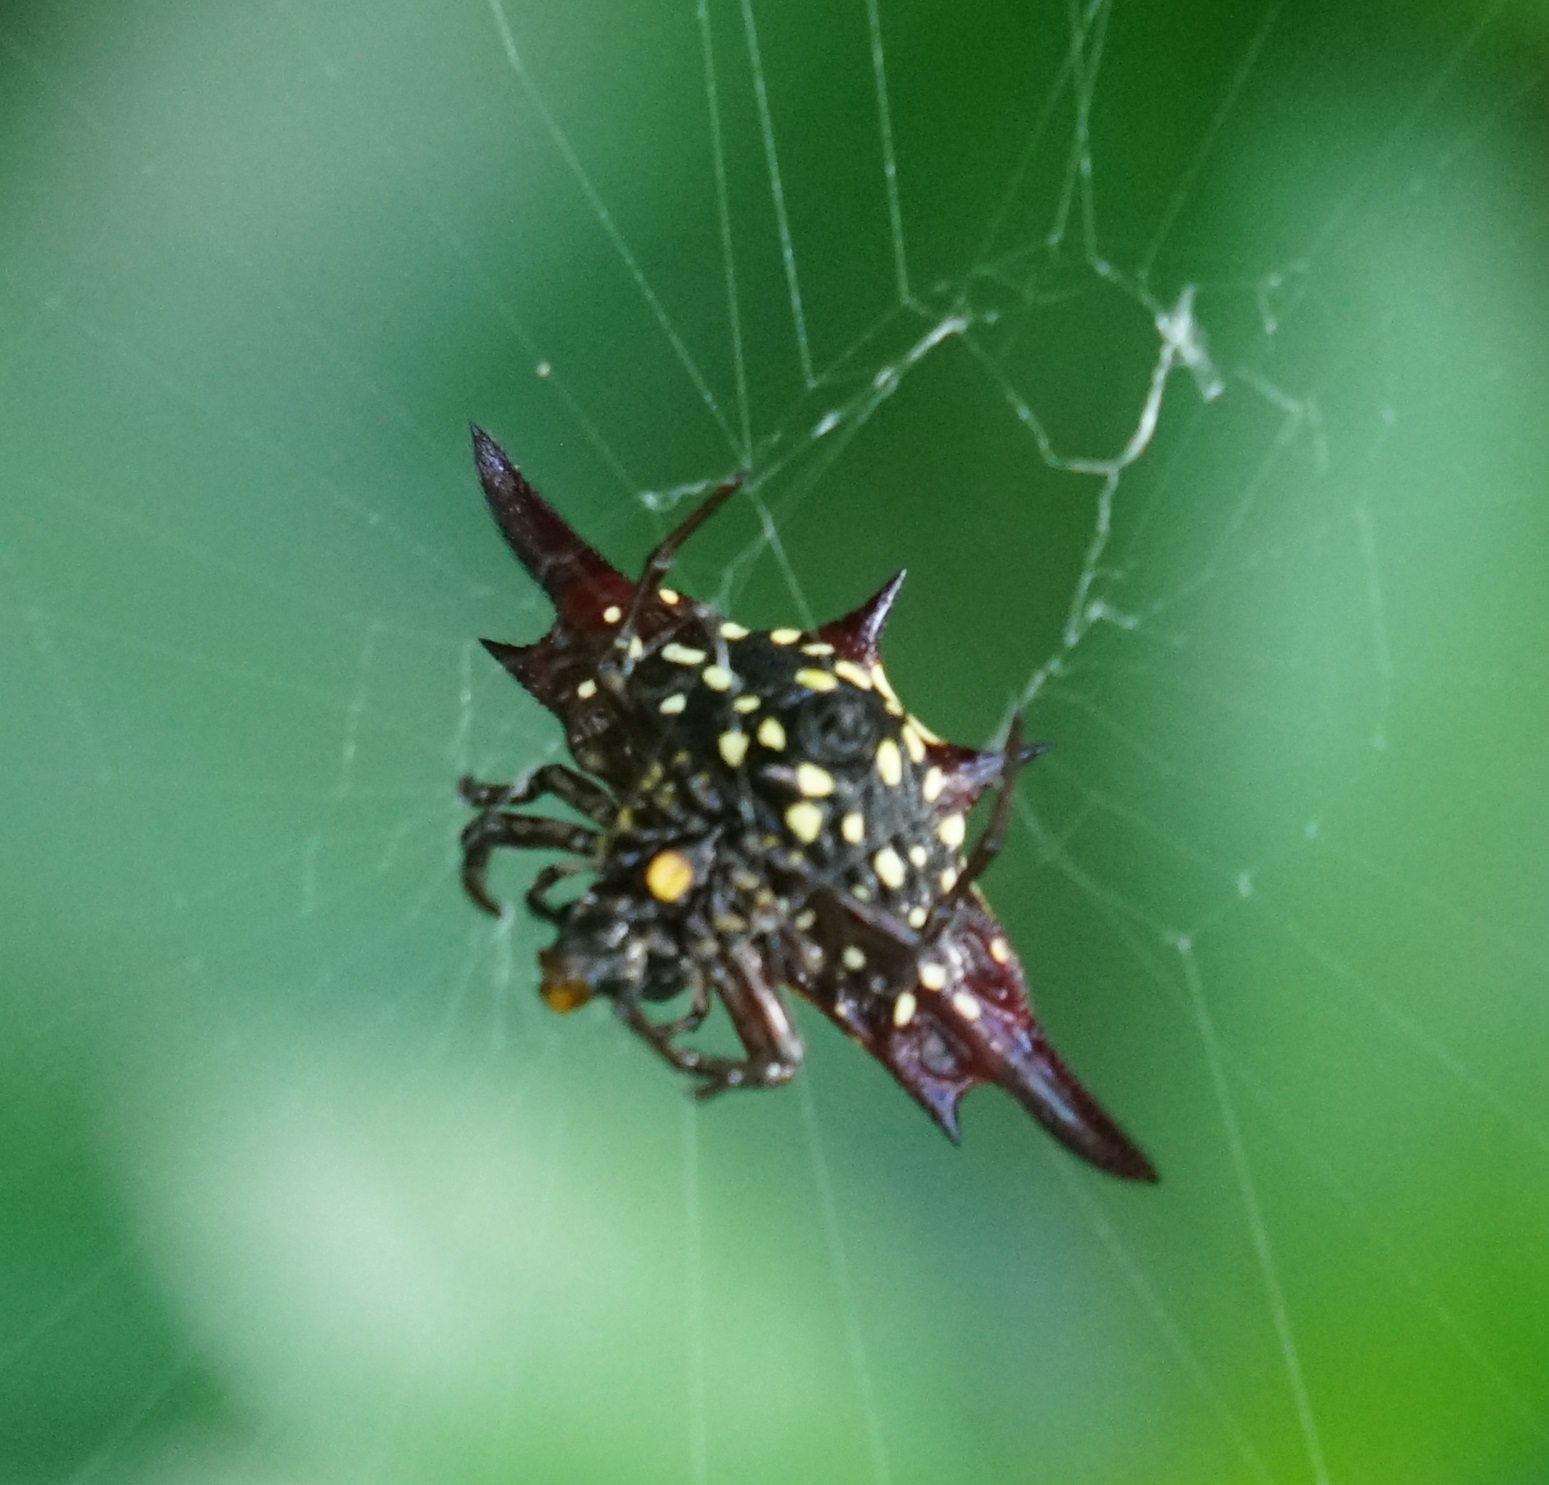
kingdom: Animalia
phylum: Arthropoda
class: Arachnida
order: Araneae
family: Araneidae
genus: Gasteracantha
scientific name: Gasteracantha fornicata
